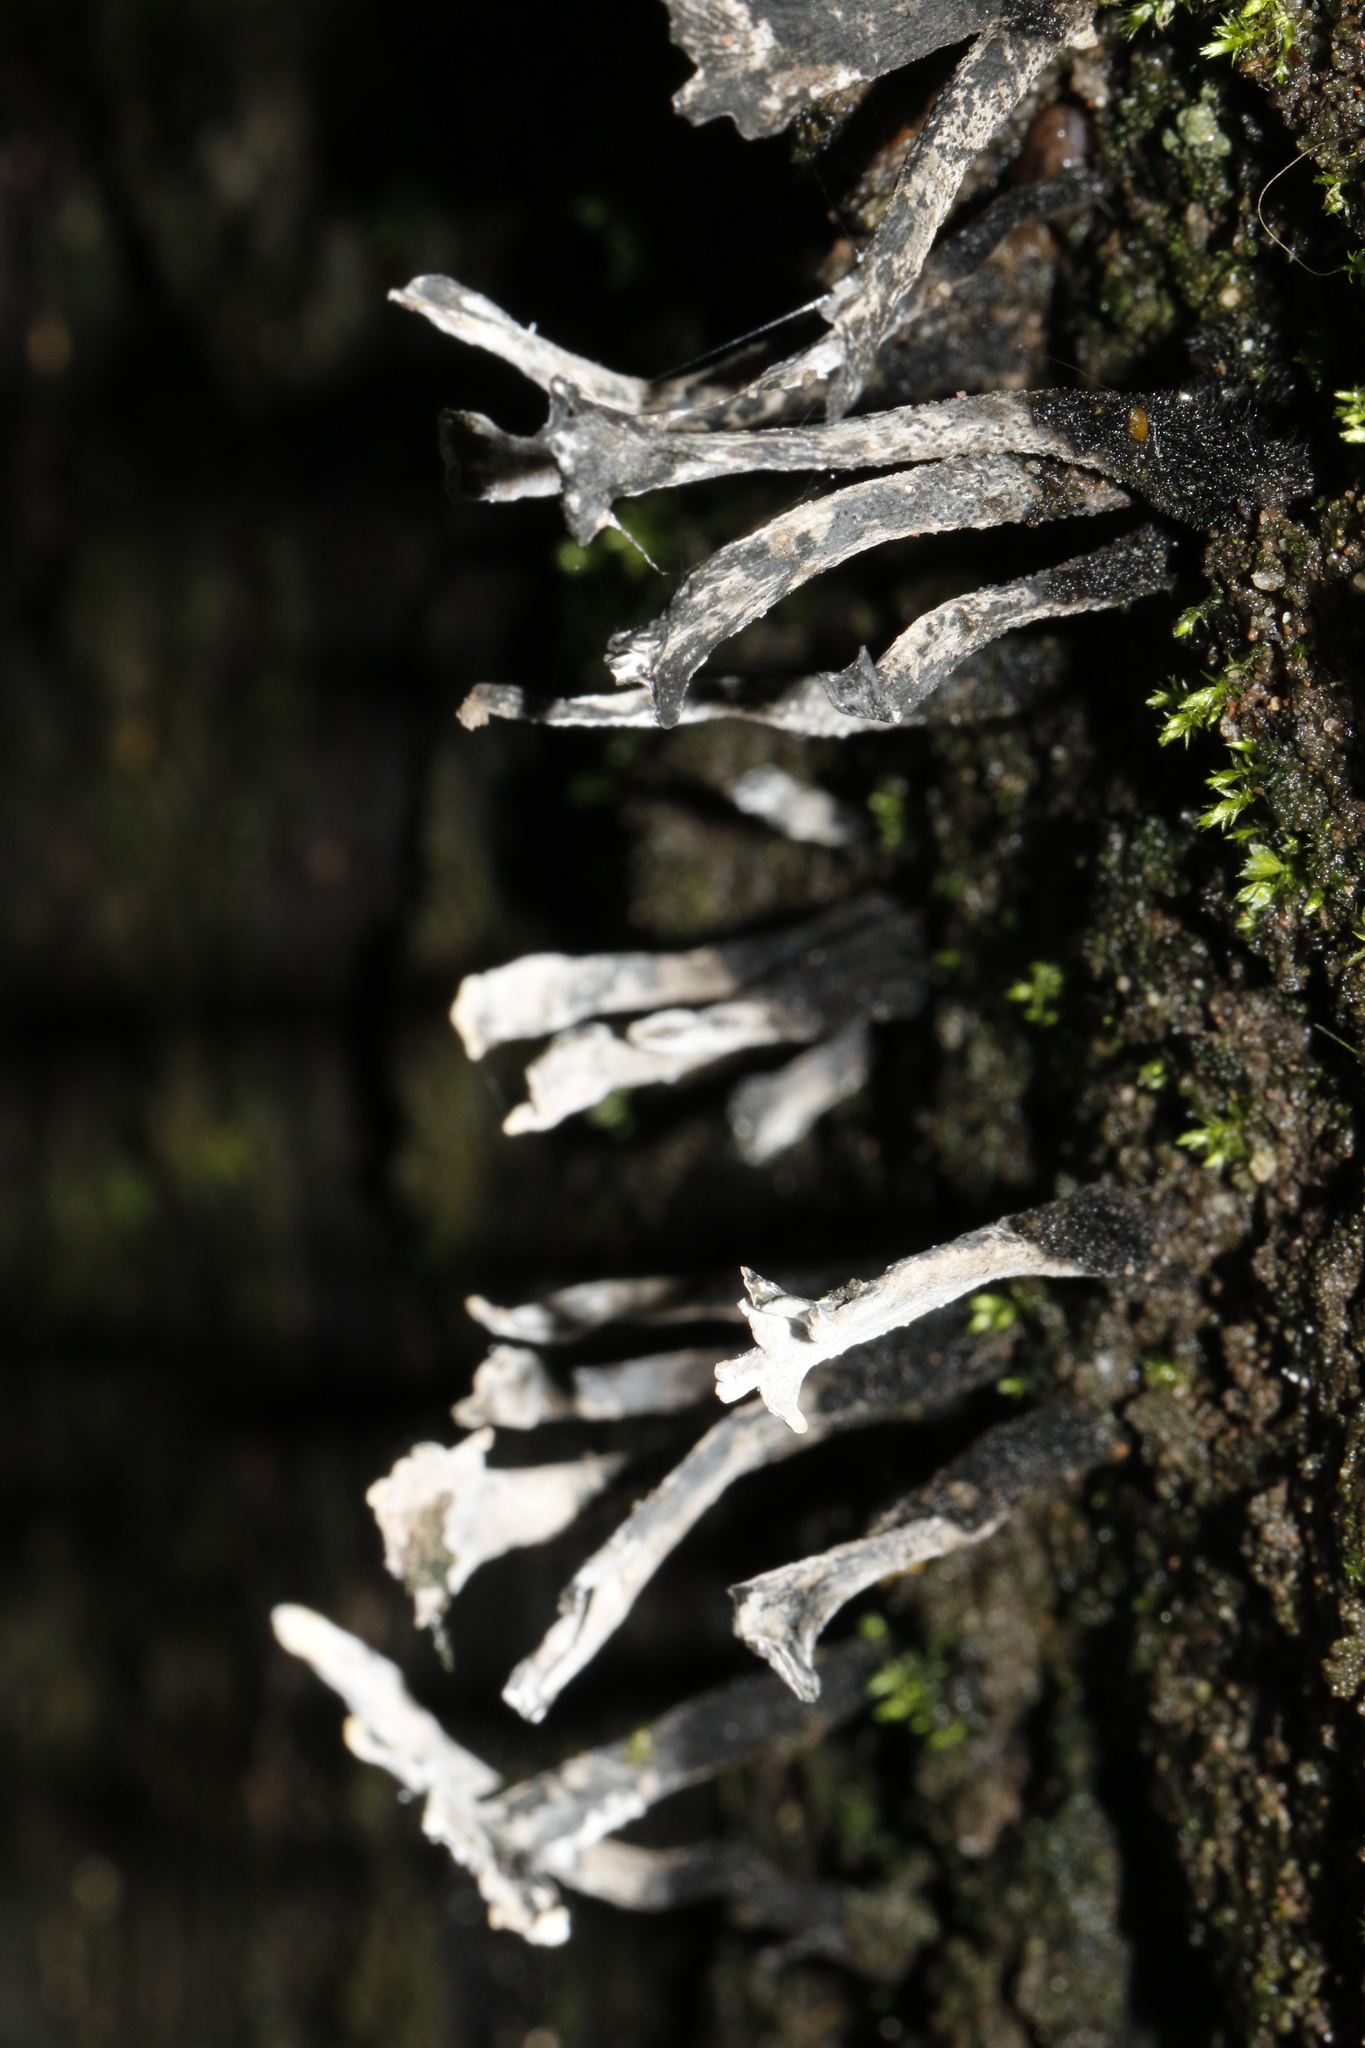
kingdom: Fungi
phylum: Ascomycota
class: Sordariomycetes
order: Xylariales
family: Xylariaceae
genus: Xylaria
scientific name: Xylaria hypoxylon
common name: Candle-snuff fungus
